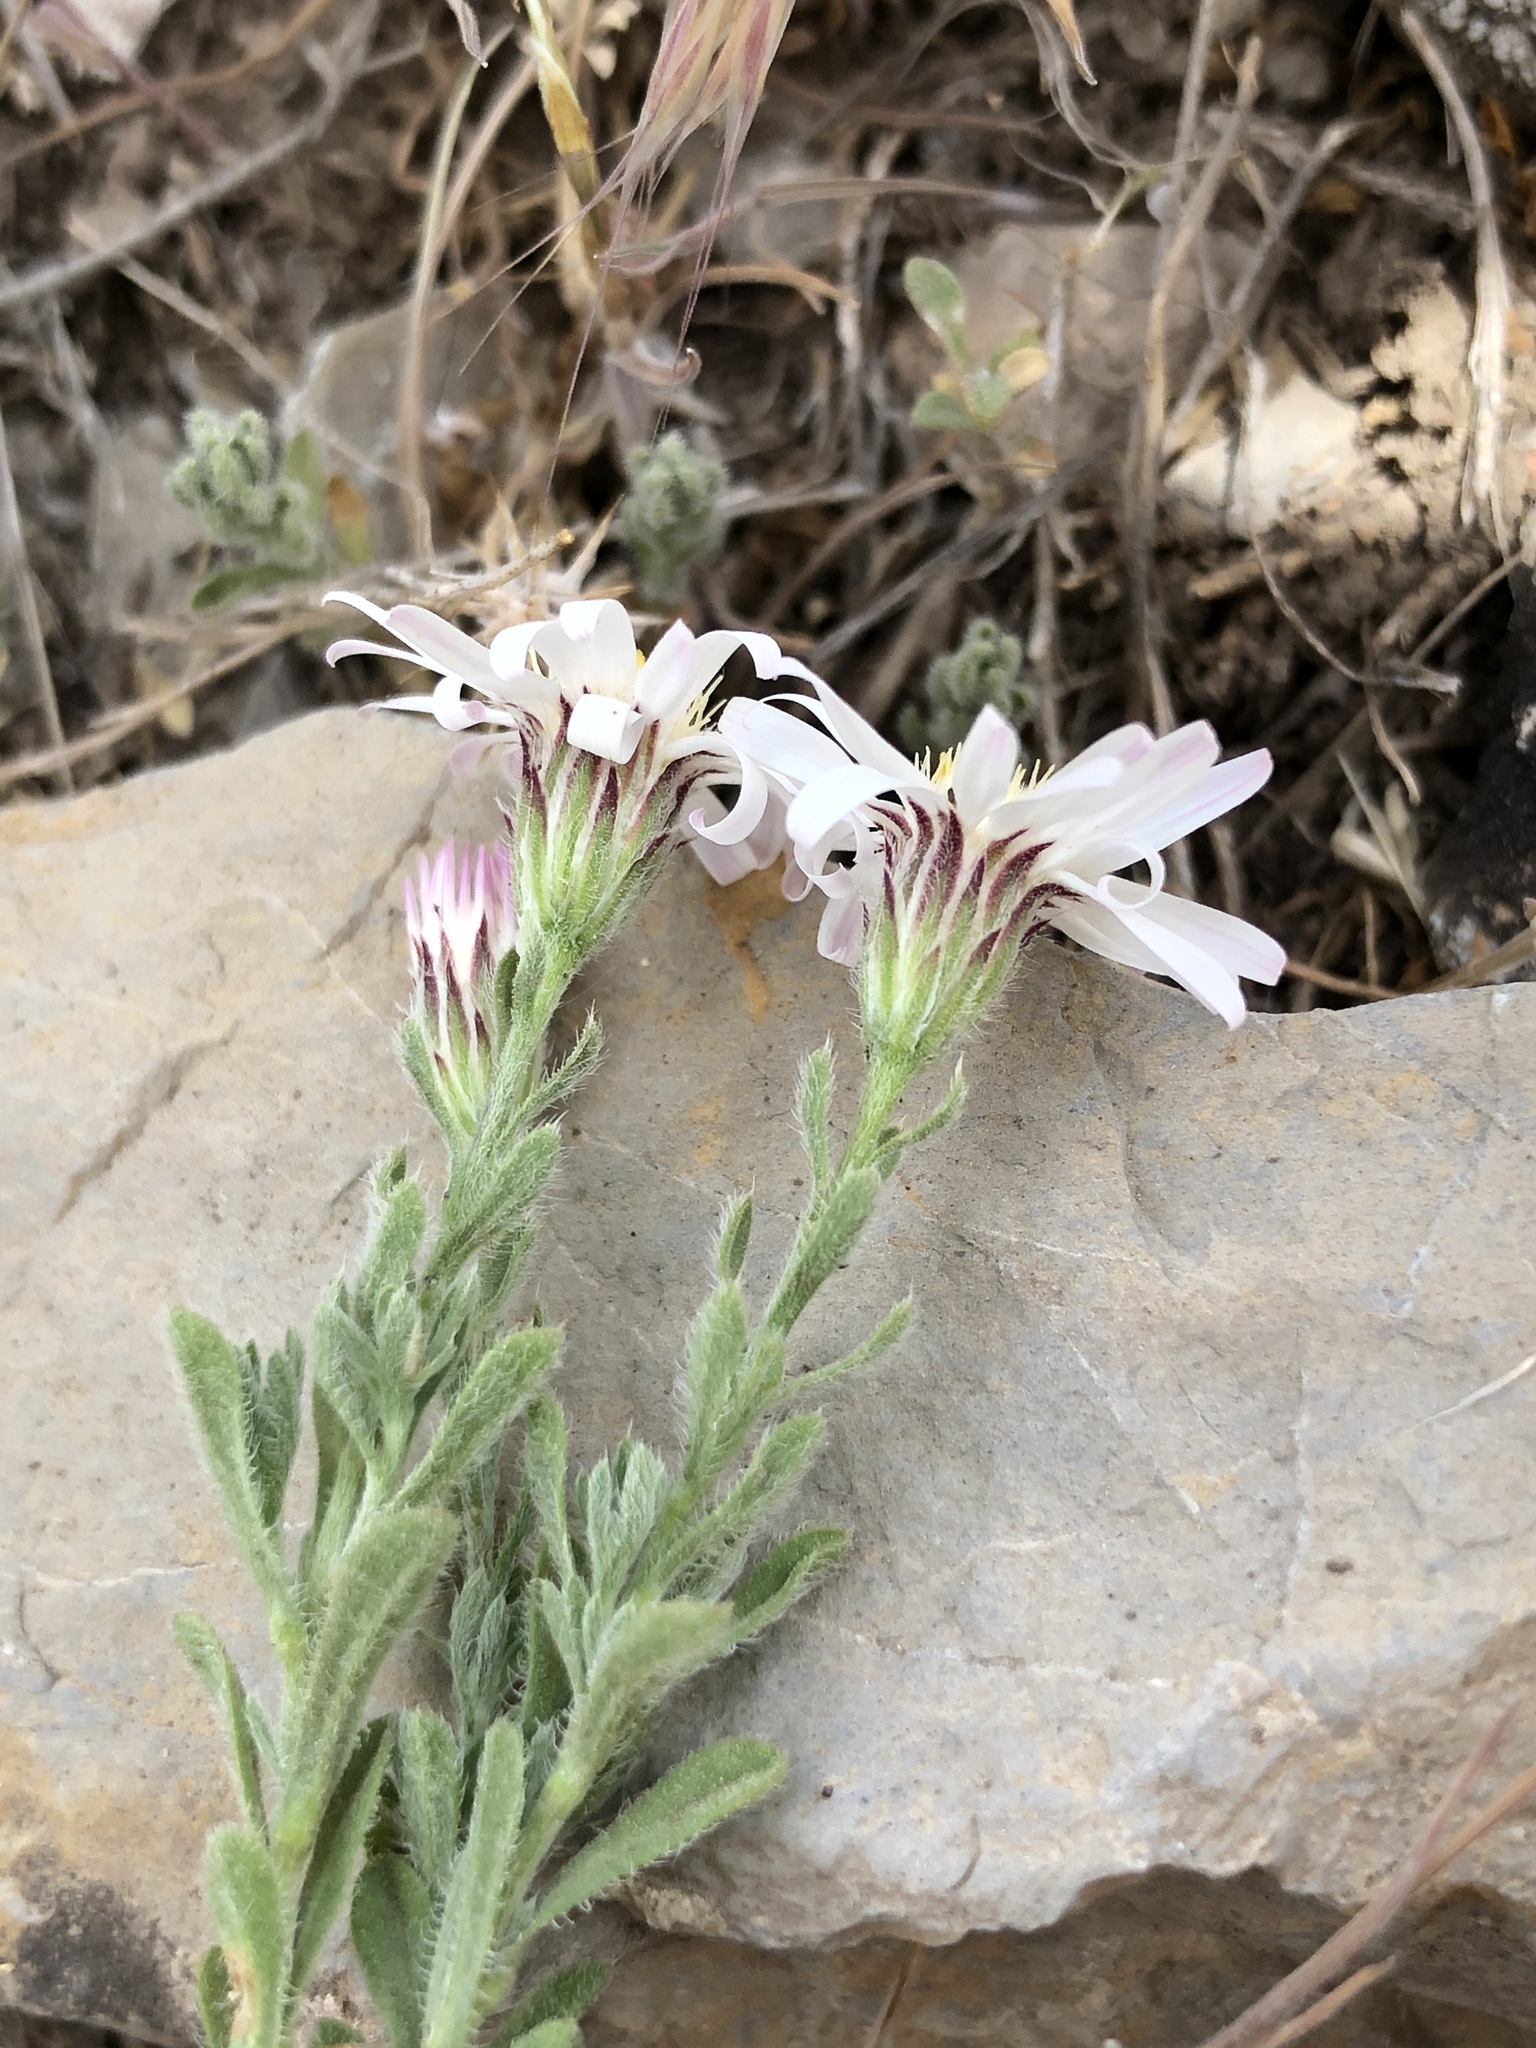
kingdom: Plantae
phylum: Tracheophyta
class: Magnoliopsida
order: Asterales
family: Asteraceae
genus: Chaetopappa
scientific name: Chaetopappa ericoides
